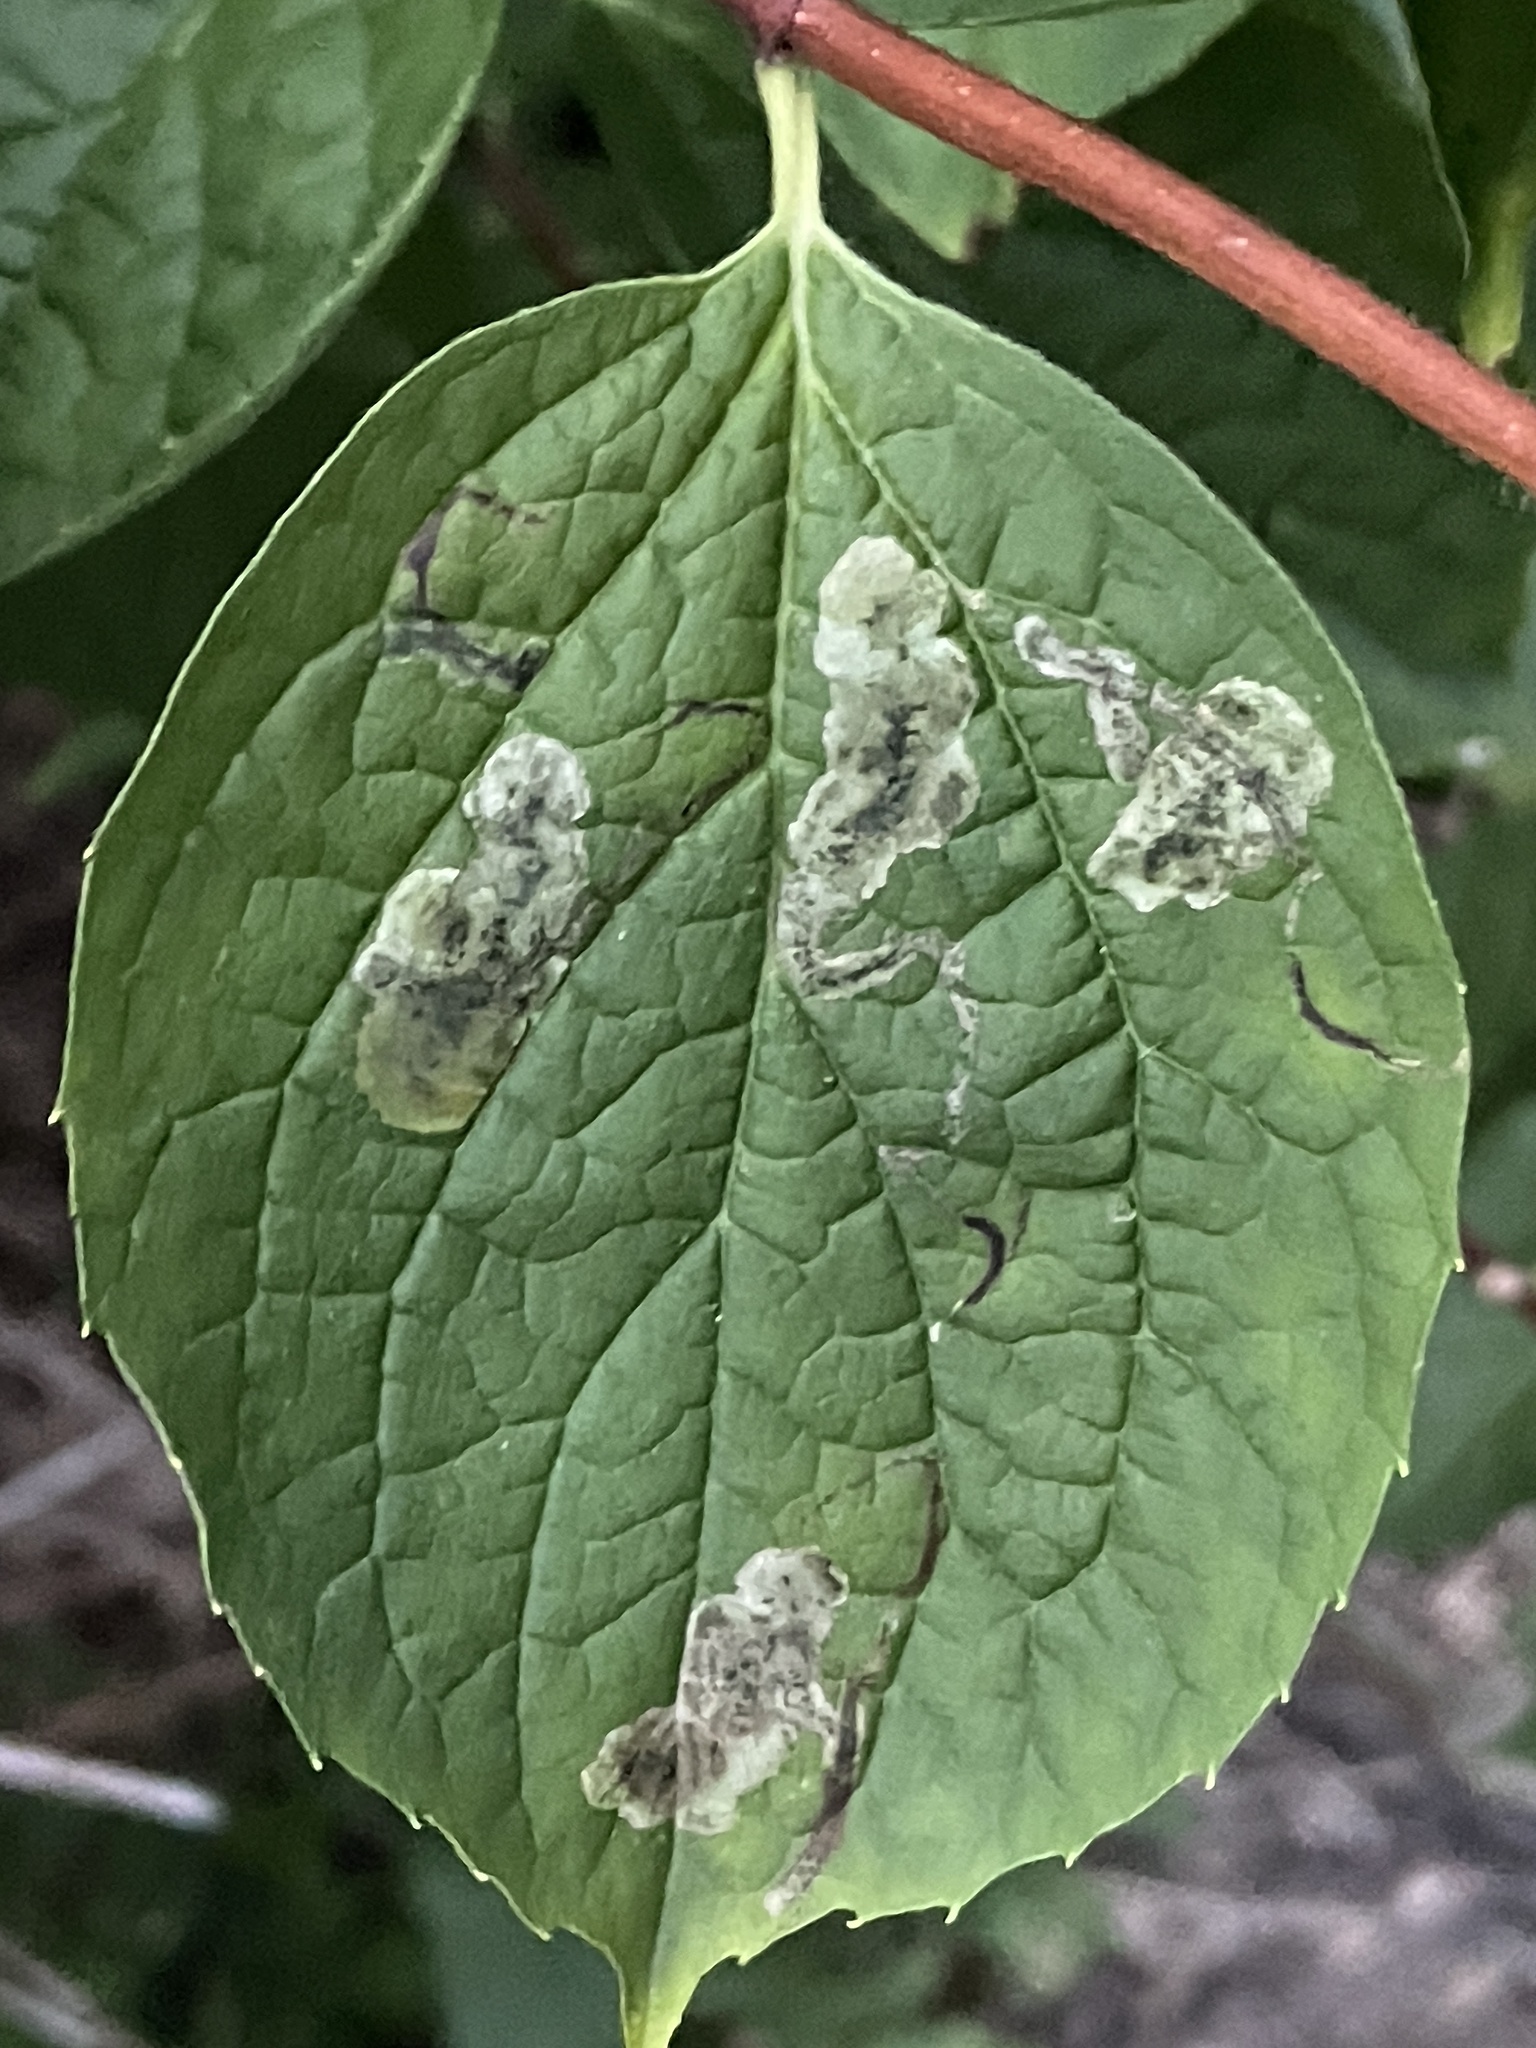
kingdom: Animalia
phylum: Arthropoda
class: Insecta
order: Diptera
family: Agromyzidae
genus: Liriomyza
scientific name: Liriomyza philadelphivora
